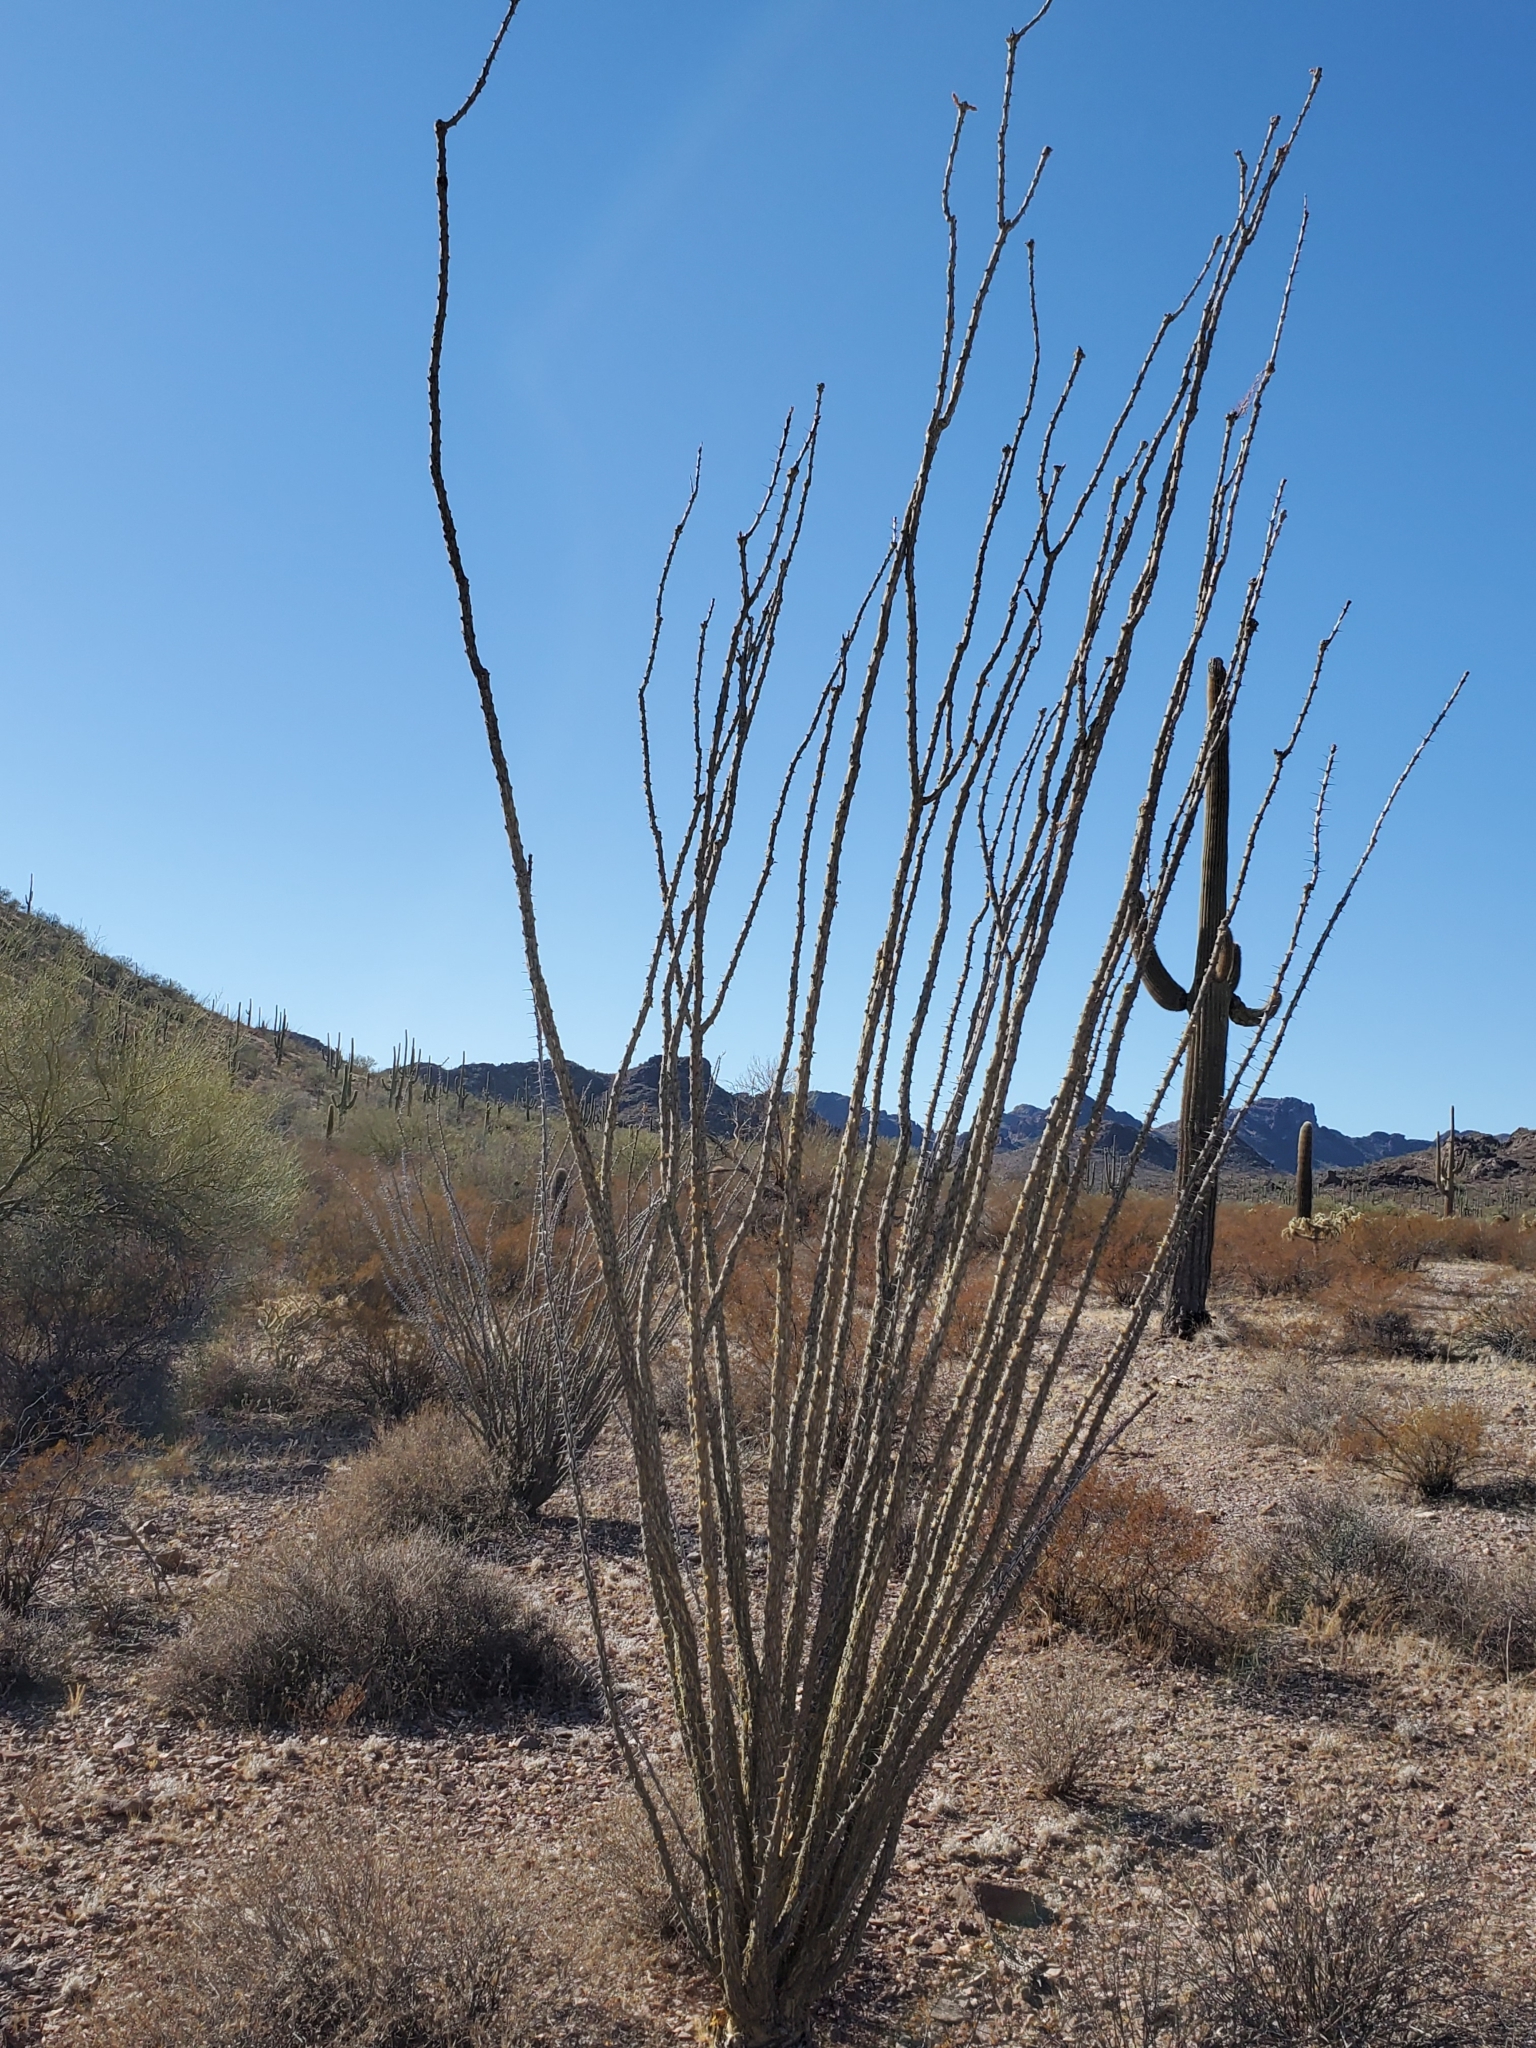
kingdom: Plantae
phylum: Tracheophyta
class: Magnoliopsida
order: Ericales
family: Fouquieriaceae
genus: Fouquieria
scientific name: Fouquieria splendens
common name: Vine-cactus
